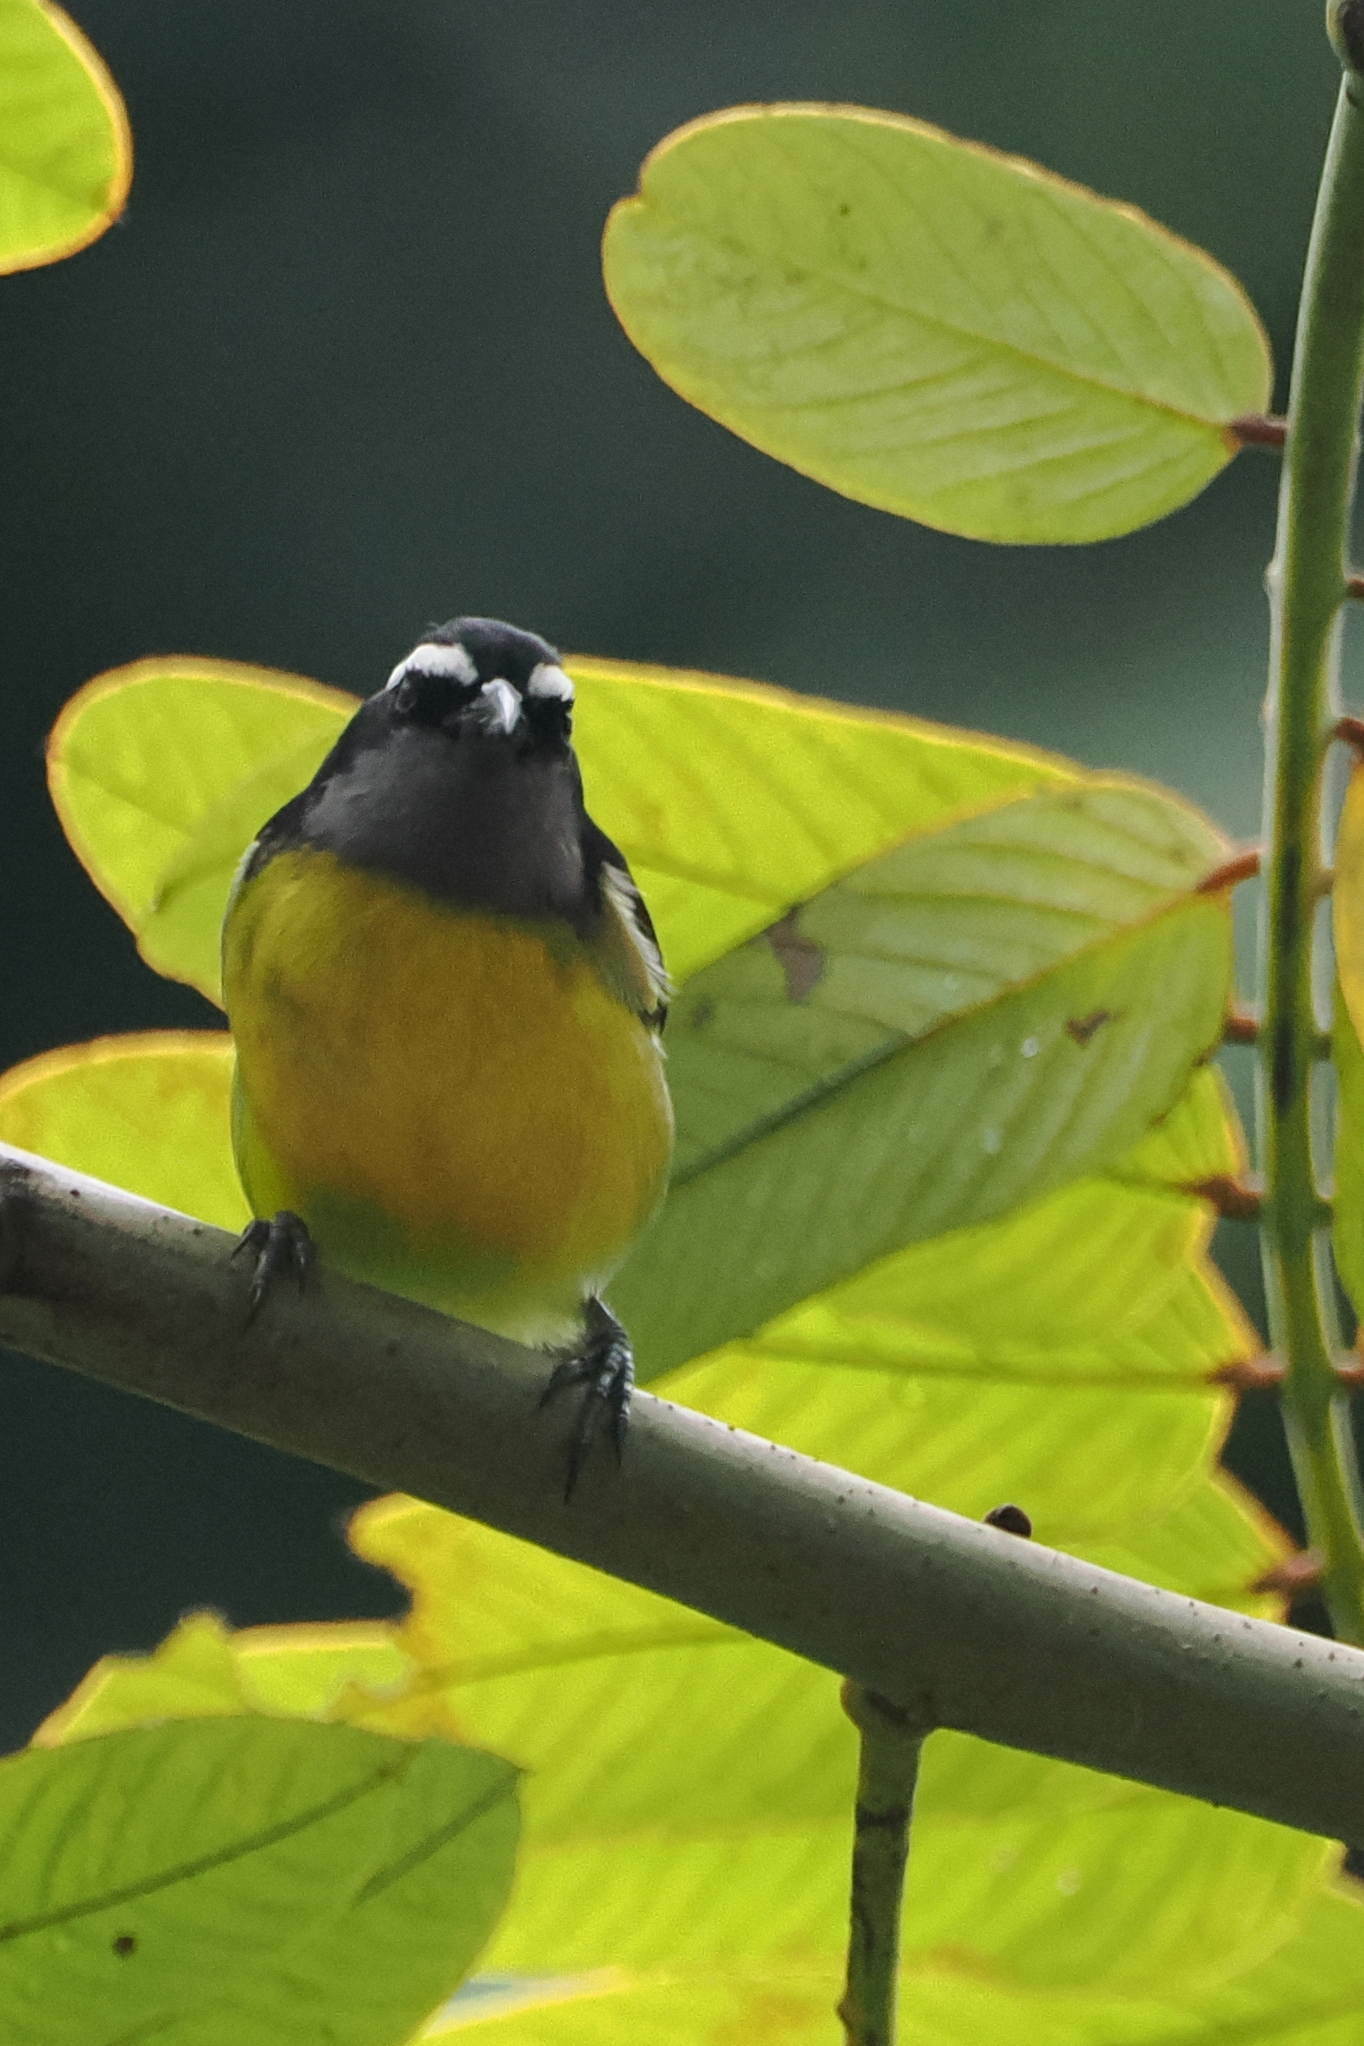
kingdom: Animalia
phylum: Chordata
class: Aves
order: Passeriformes
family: Thraupidae
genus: Coereba
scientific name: Coereba flaveola
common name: Bananaquit
